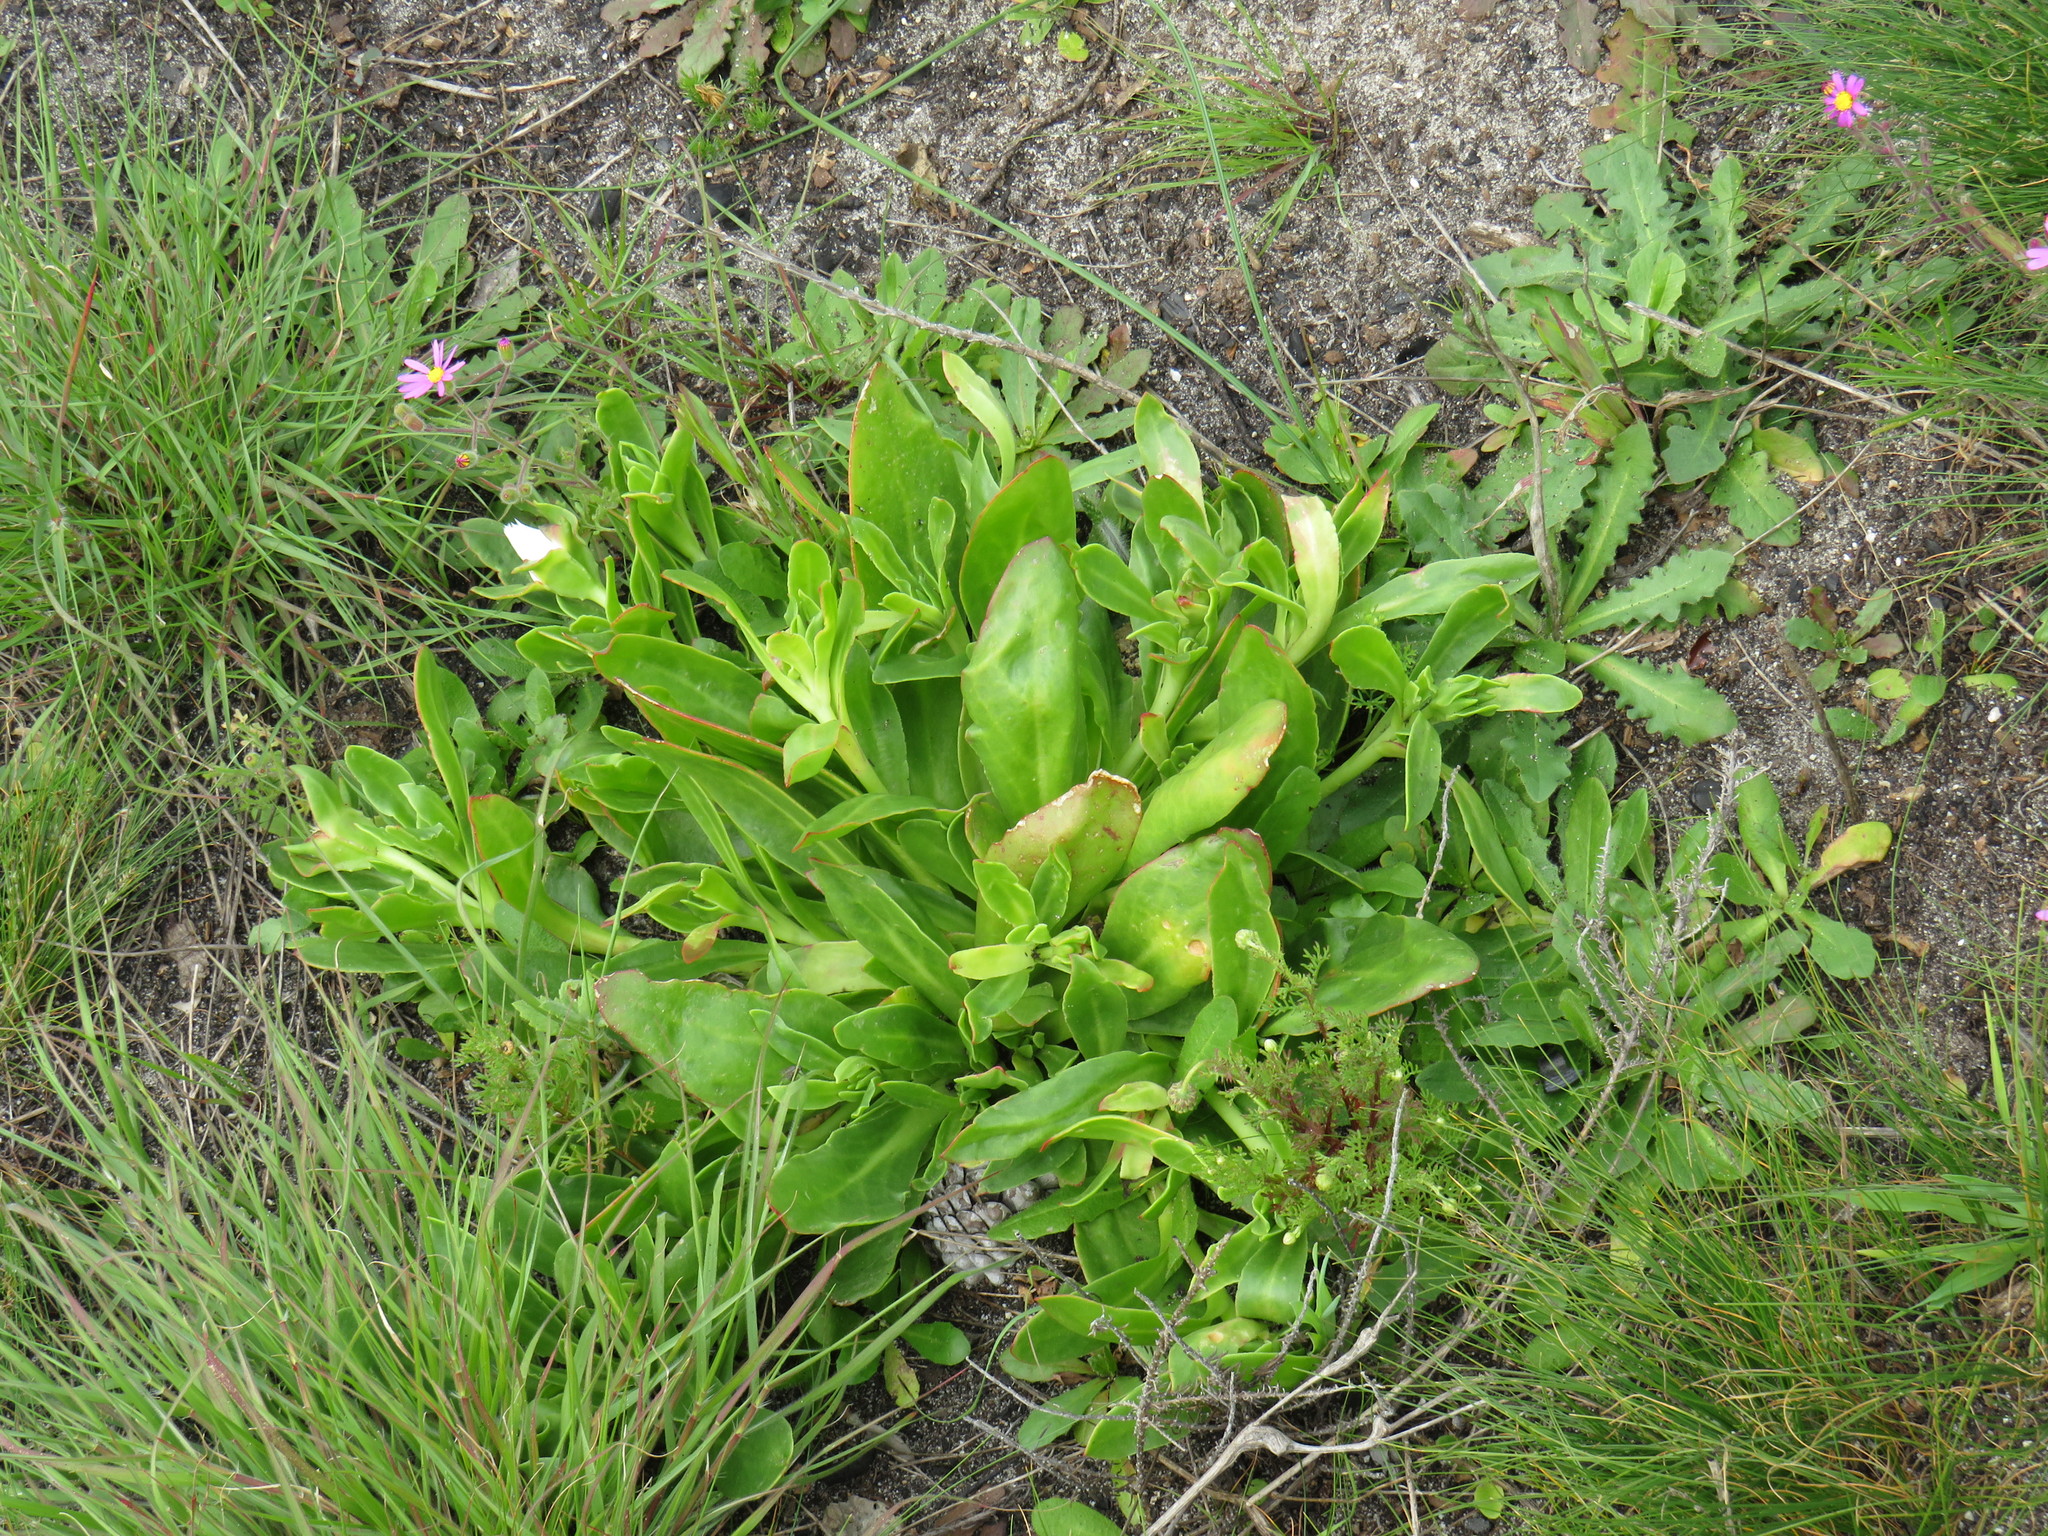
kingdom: Plantae
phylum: Tracheophyta
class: Magnoliopsida
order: Caryophyllales
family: Aizoaceae
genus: Skiatophytum
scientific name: Skiatophytum tripolium
